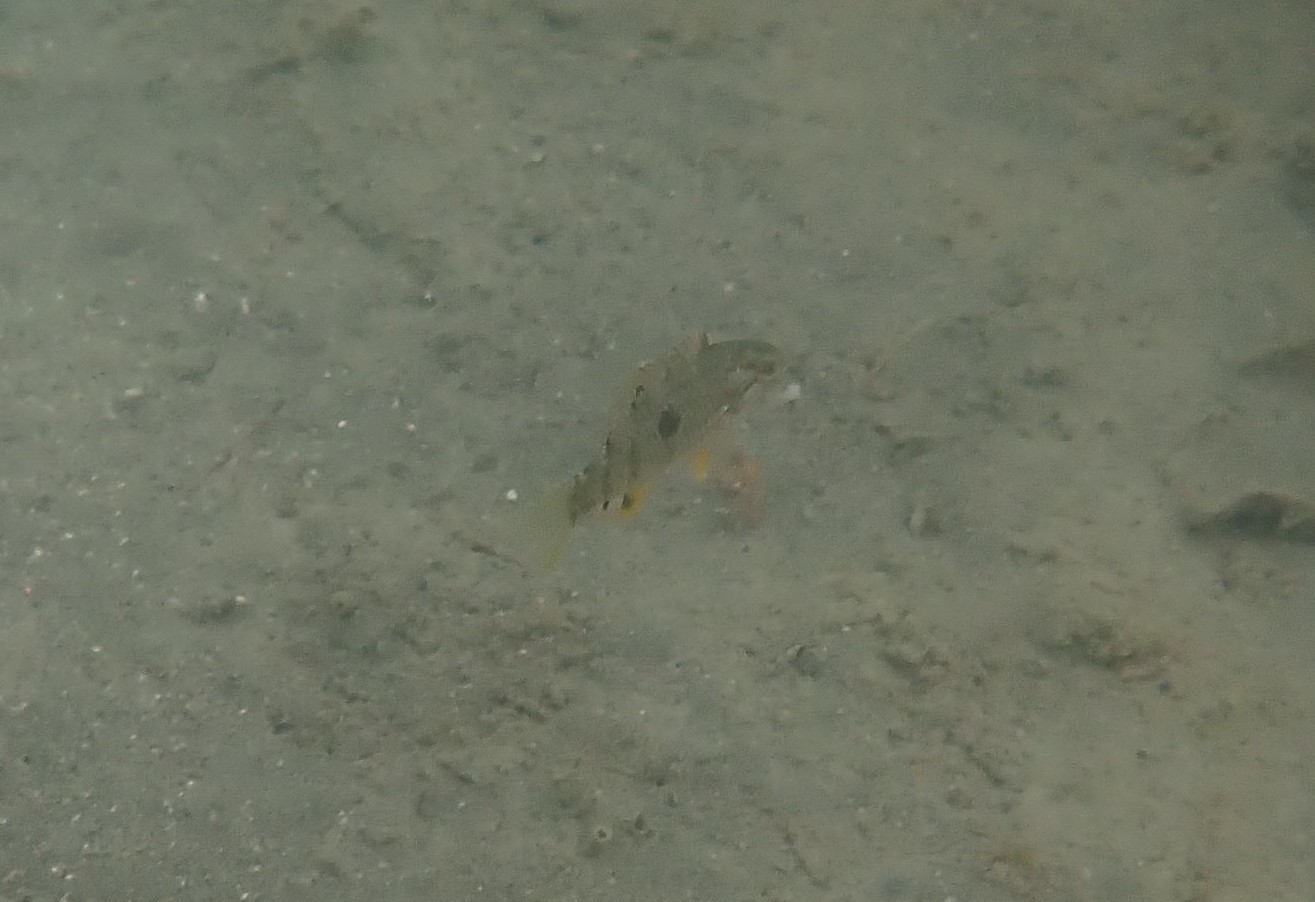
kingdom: Animalia
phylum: Chordata
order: Perciformes
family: Labridae
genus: Notolabrus
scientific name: Notolabrus celidotus
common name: Spotty
